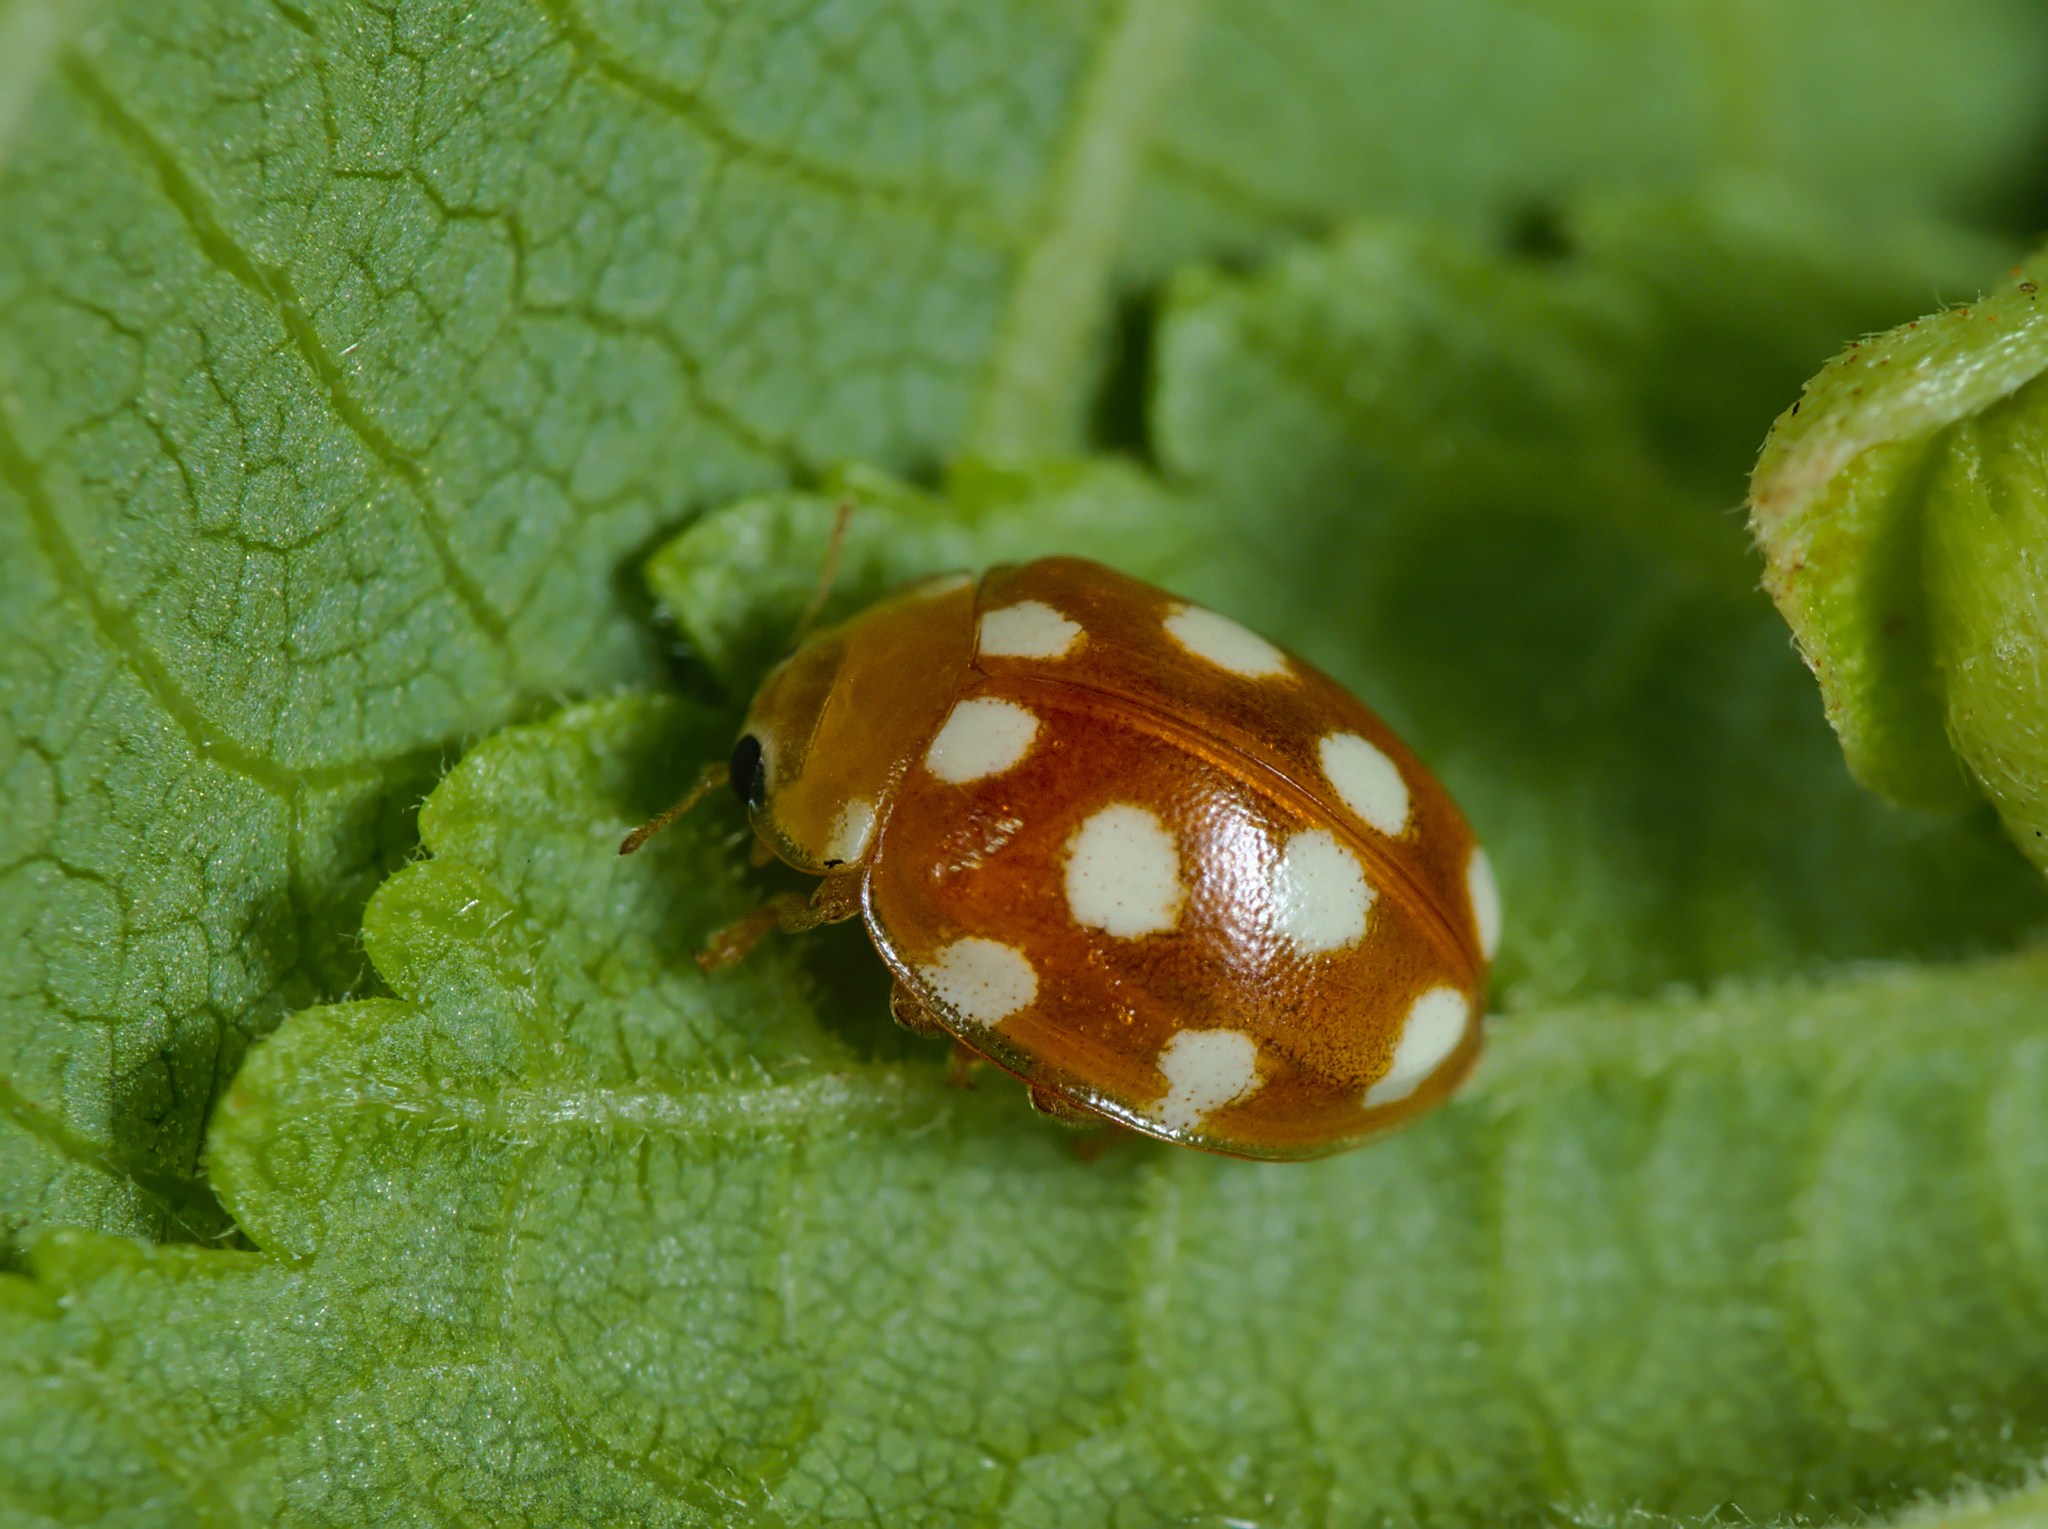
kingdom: Animalia
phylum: Arthropoda
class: Insecta
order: Coleoptera
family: Coccinellidae
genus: Vibidia
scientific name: Vibidia duodecimguttata
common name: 12-spot ladybird
